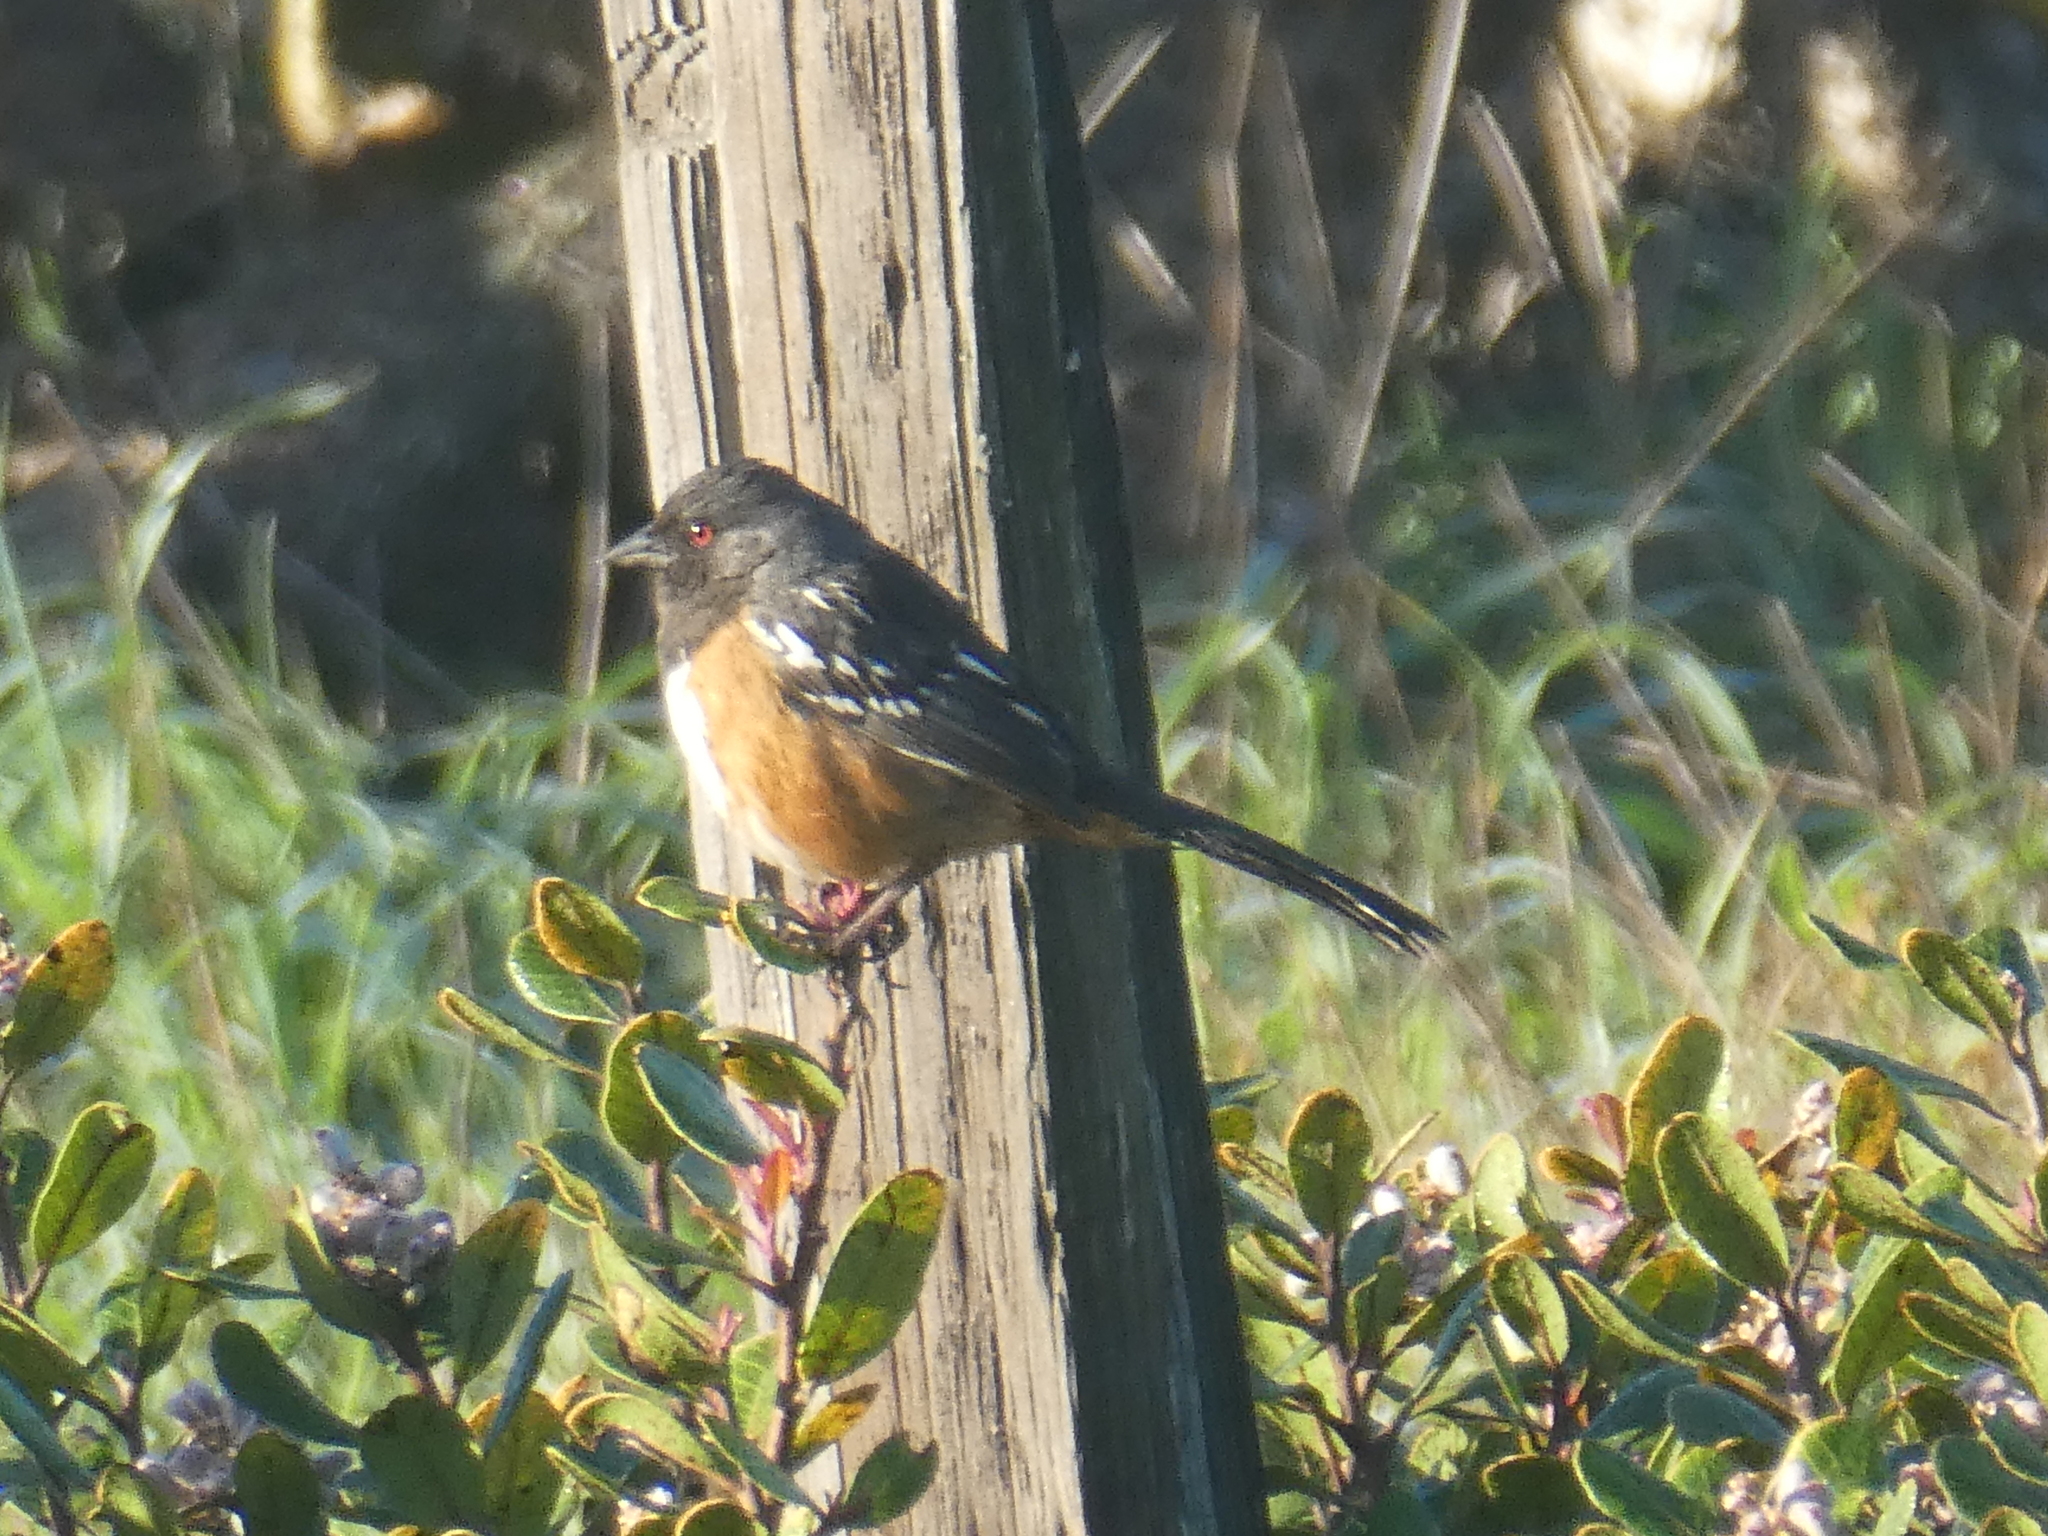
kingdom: Animalia
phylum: Chordata
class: Aves
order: Passeriformes
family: Passerellidae
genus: Pipilo
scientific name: Pipilo maculatus
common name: Spotted towhee
